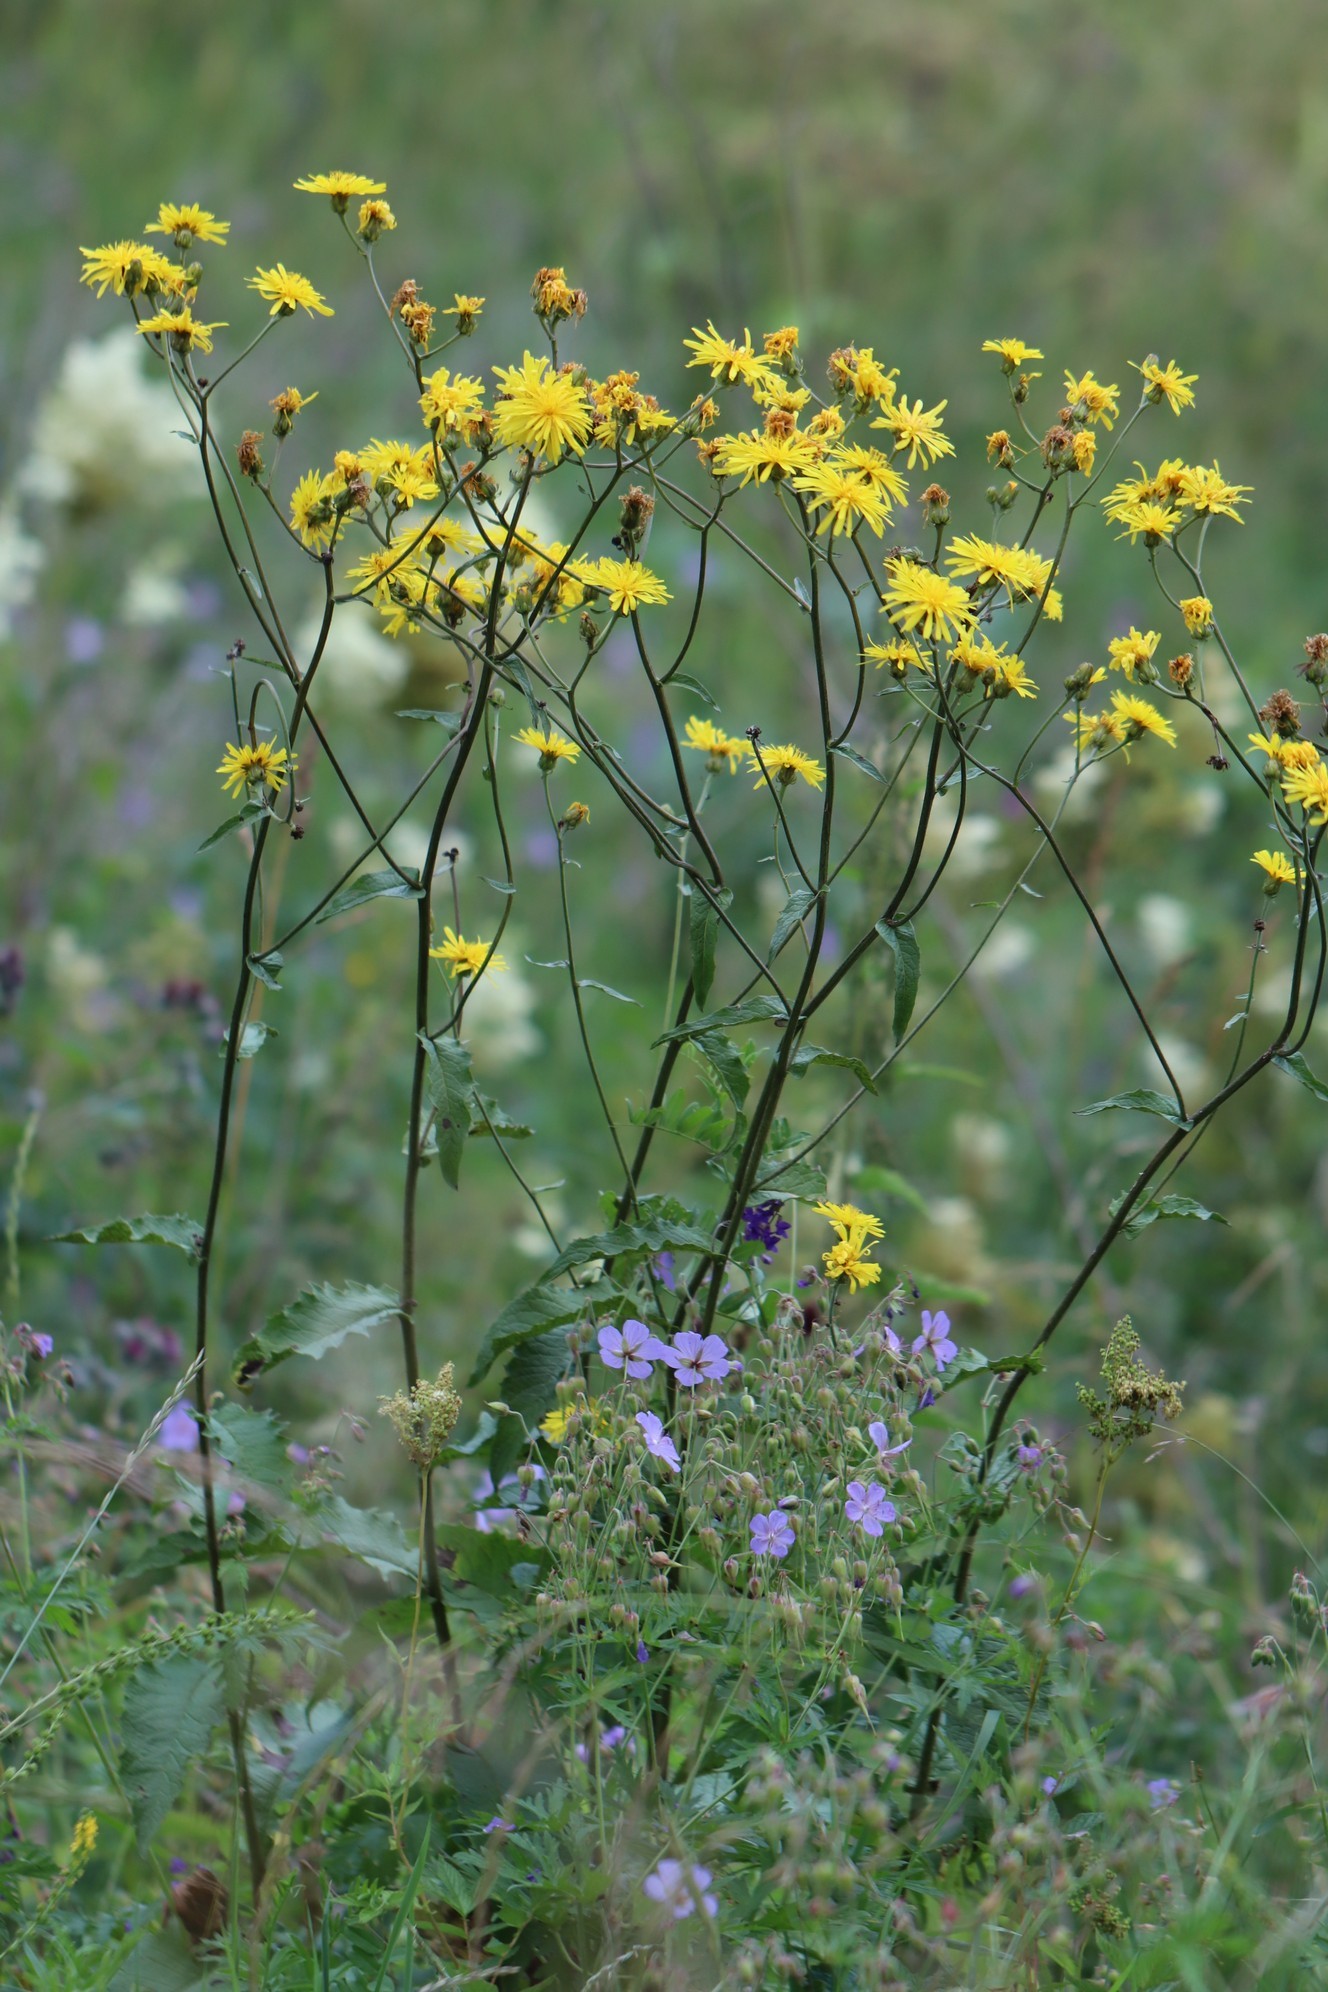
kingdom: Plantae
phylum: Tracheophyta
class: Magnoliopsida
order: Asterales
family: Asteraceae
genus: Crepis
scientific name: Crepis sibirica
